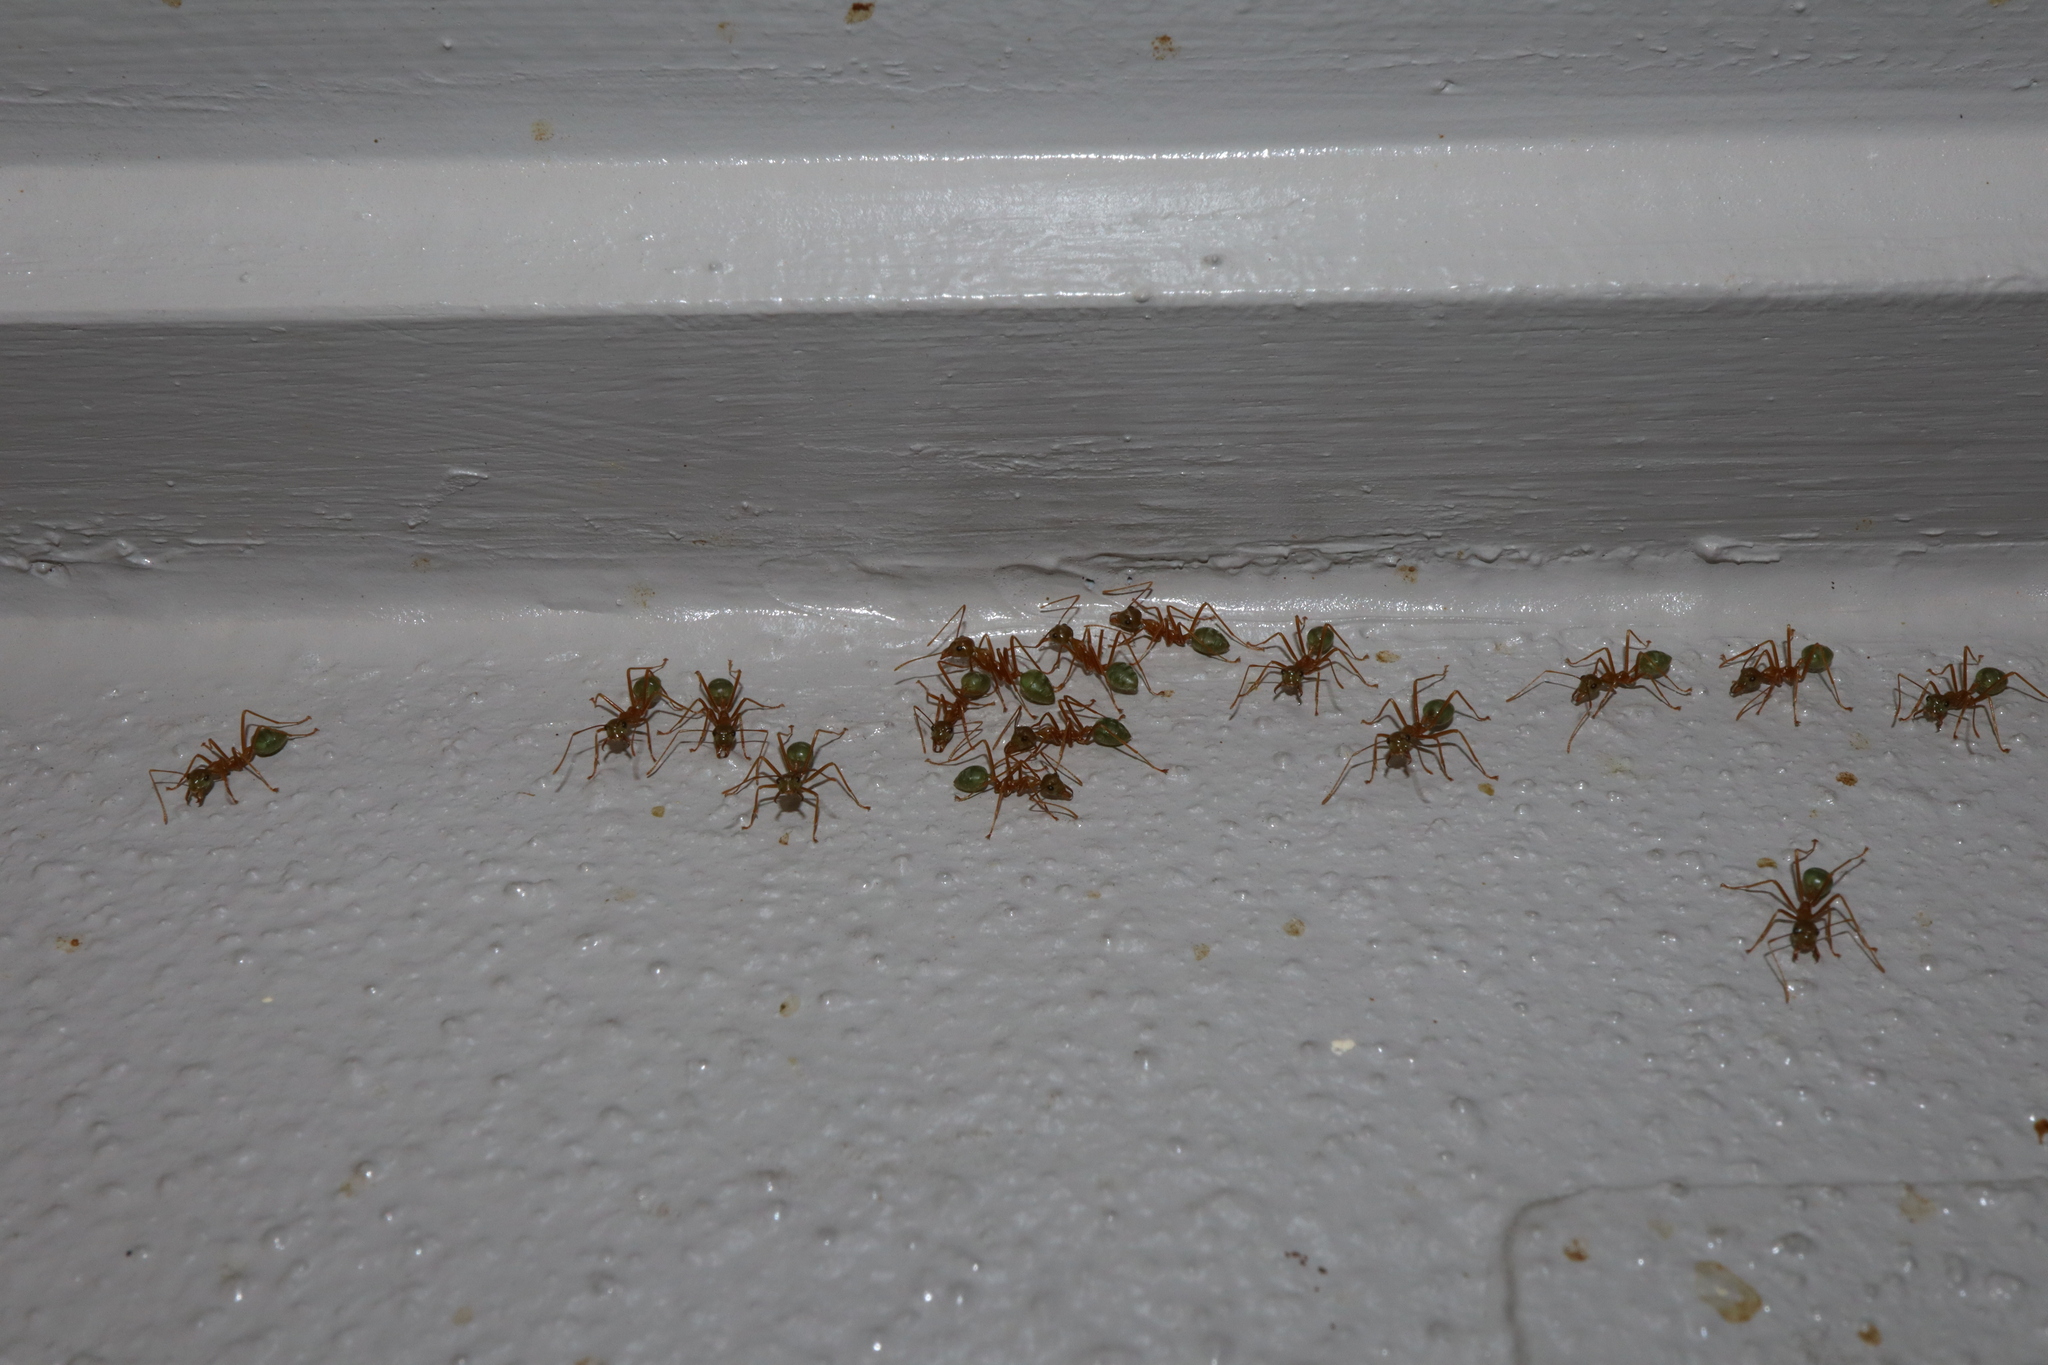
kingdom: Animalia
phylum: Arthropoda
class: Insecta
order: Hymenoptera
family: Formicidae
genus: Oecophylla
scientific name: Oecophylla smaragdina
